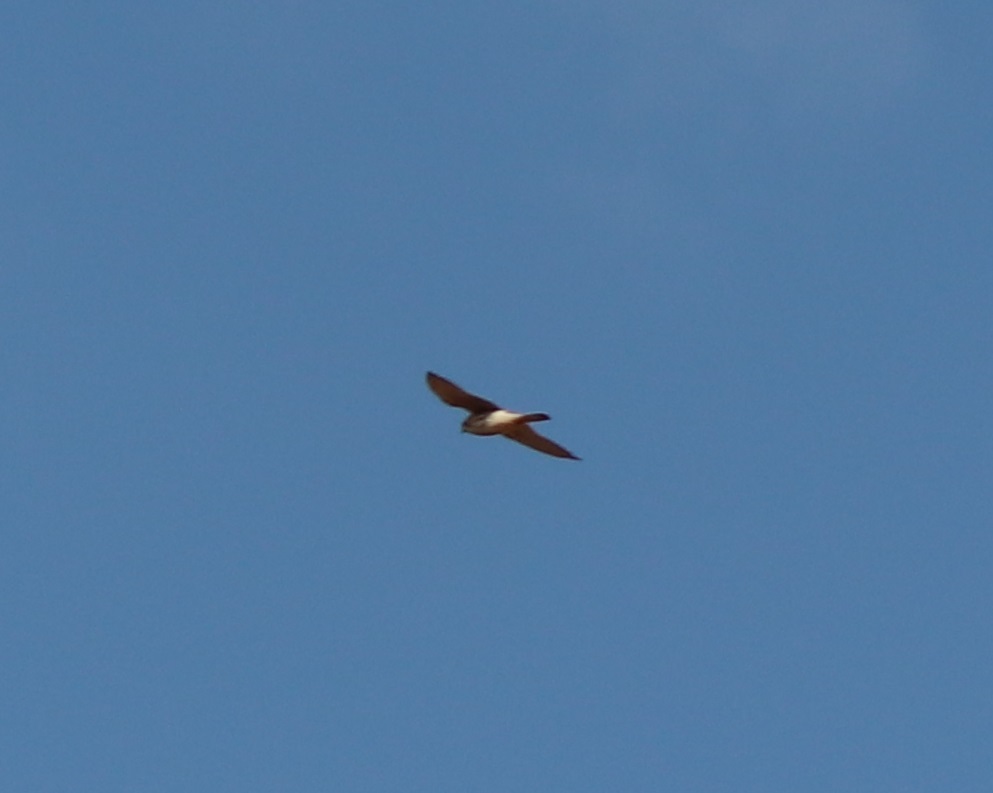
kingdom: Animalia
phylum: Chordata
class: Aves
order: Falconiformes
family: Falconidae
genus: Falco
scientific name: Falco sparverius
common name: American kestrel
